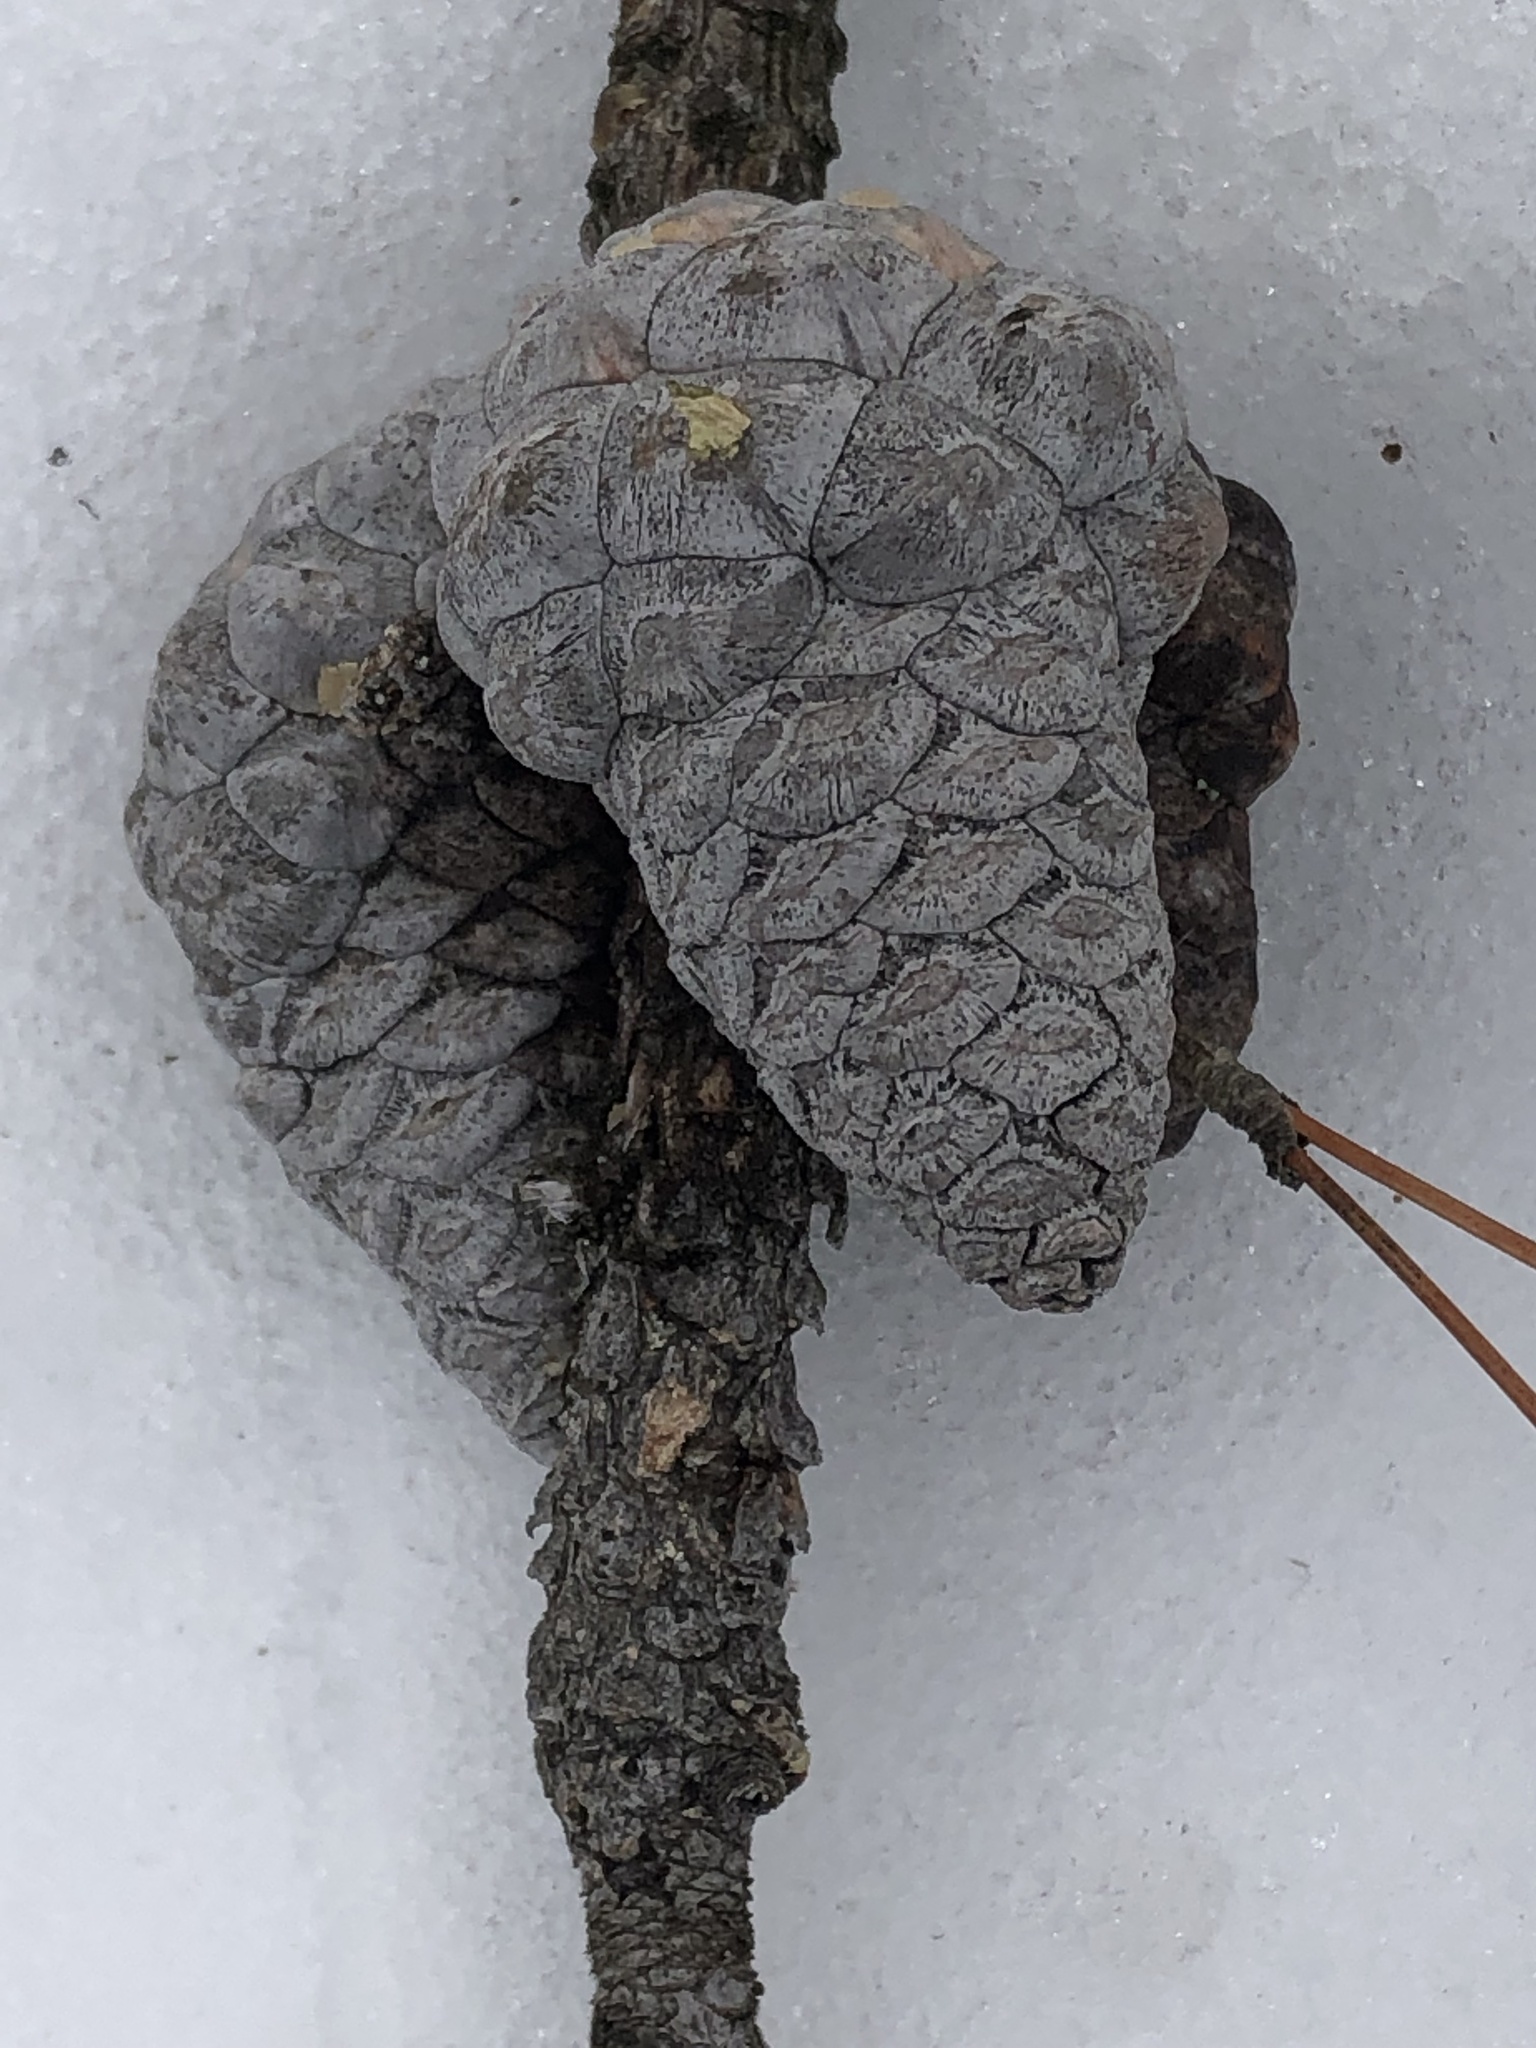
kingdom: Plantae
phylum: Tracheophyta
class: Pinopsida
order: Pinales
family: Pinaceae
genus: Pinus
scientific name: Pinus banksiana
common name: Jack pine
